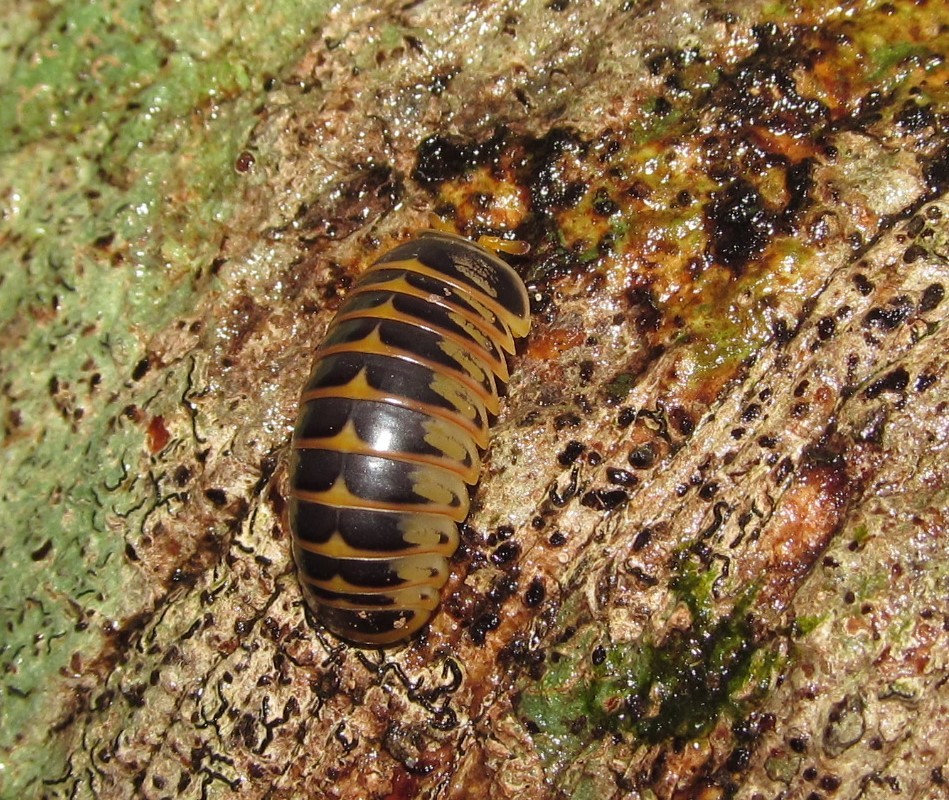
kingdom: Animalia
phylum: Arthropoda
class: Diplopoda
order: Glomerida
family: Glomeridae
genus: Rhopalomeris
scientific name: Rhopalomeris sauda
